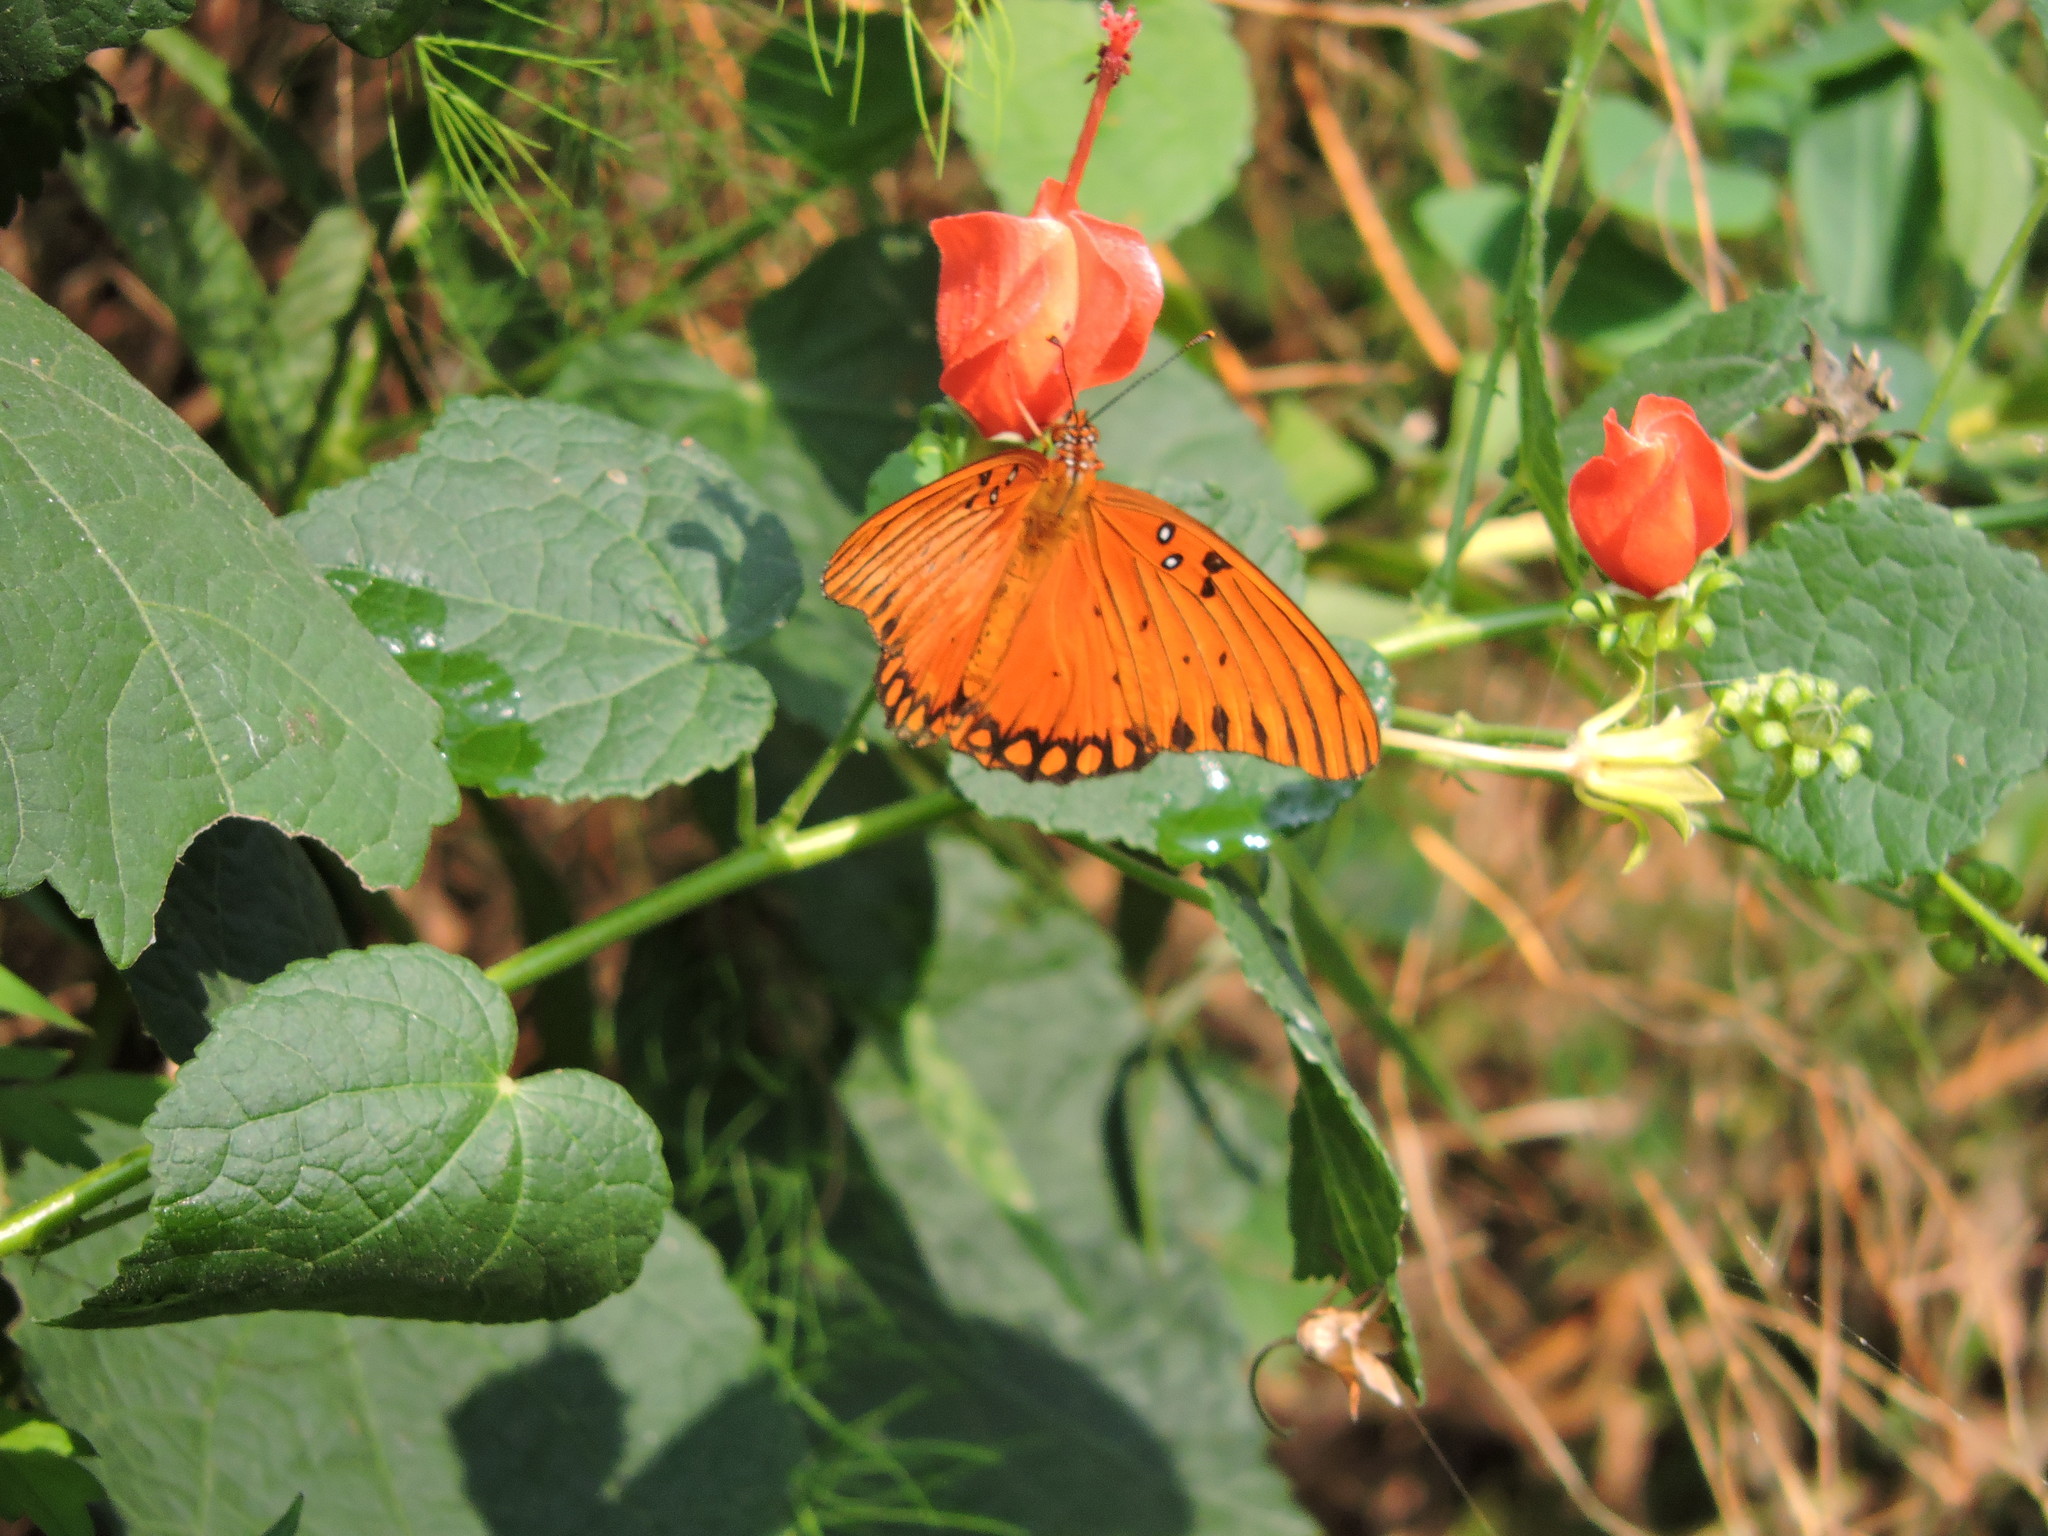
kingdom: Animalia
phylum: Arthropoda
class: Insecta
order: Lepidoptera
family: Nymphalidae
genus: Dione
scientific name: Dione vanillae
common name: Gulf fritillary
